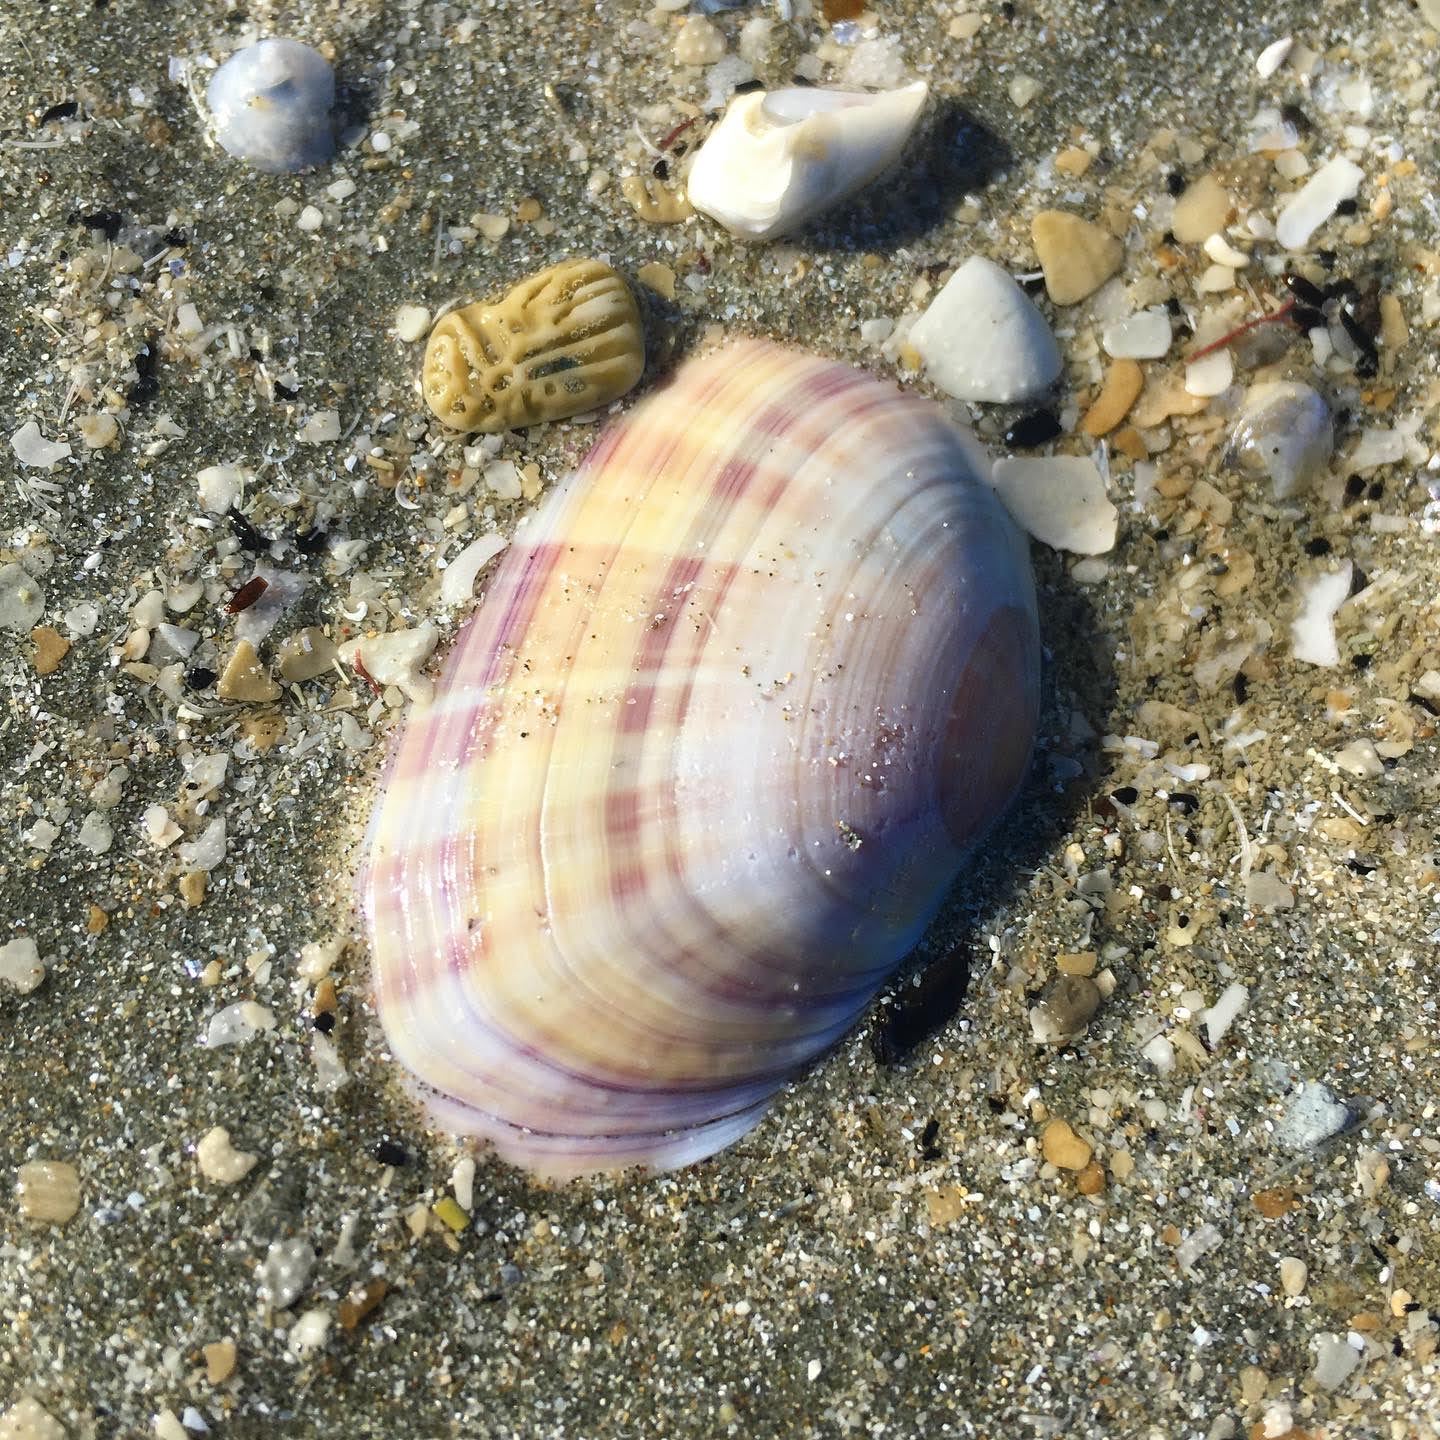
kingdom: Animalia
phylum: Mollusca
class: Bivalvia
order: Cardiida
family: Psammobiidae
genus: Gari
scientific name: Gari stangeri
